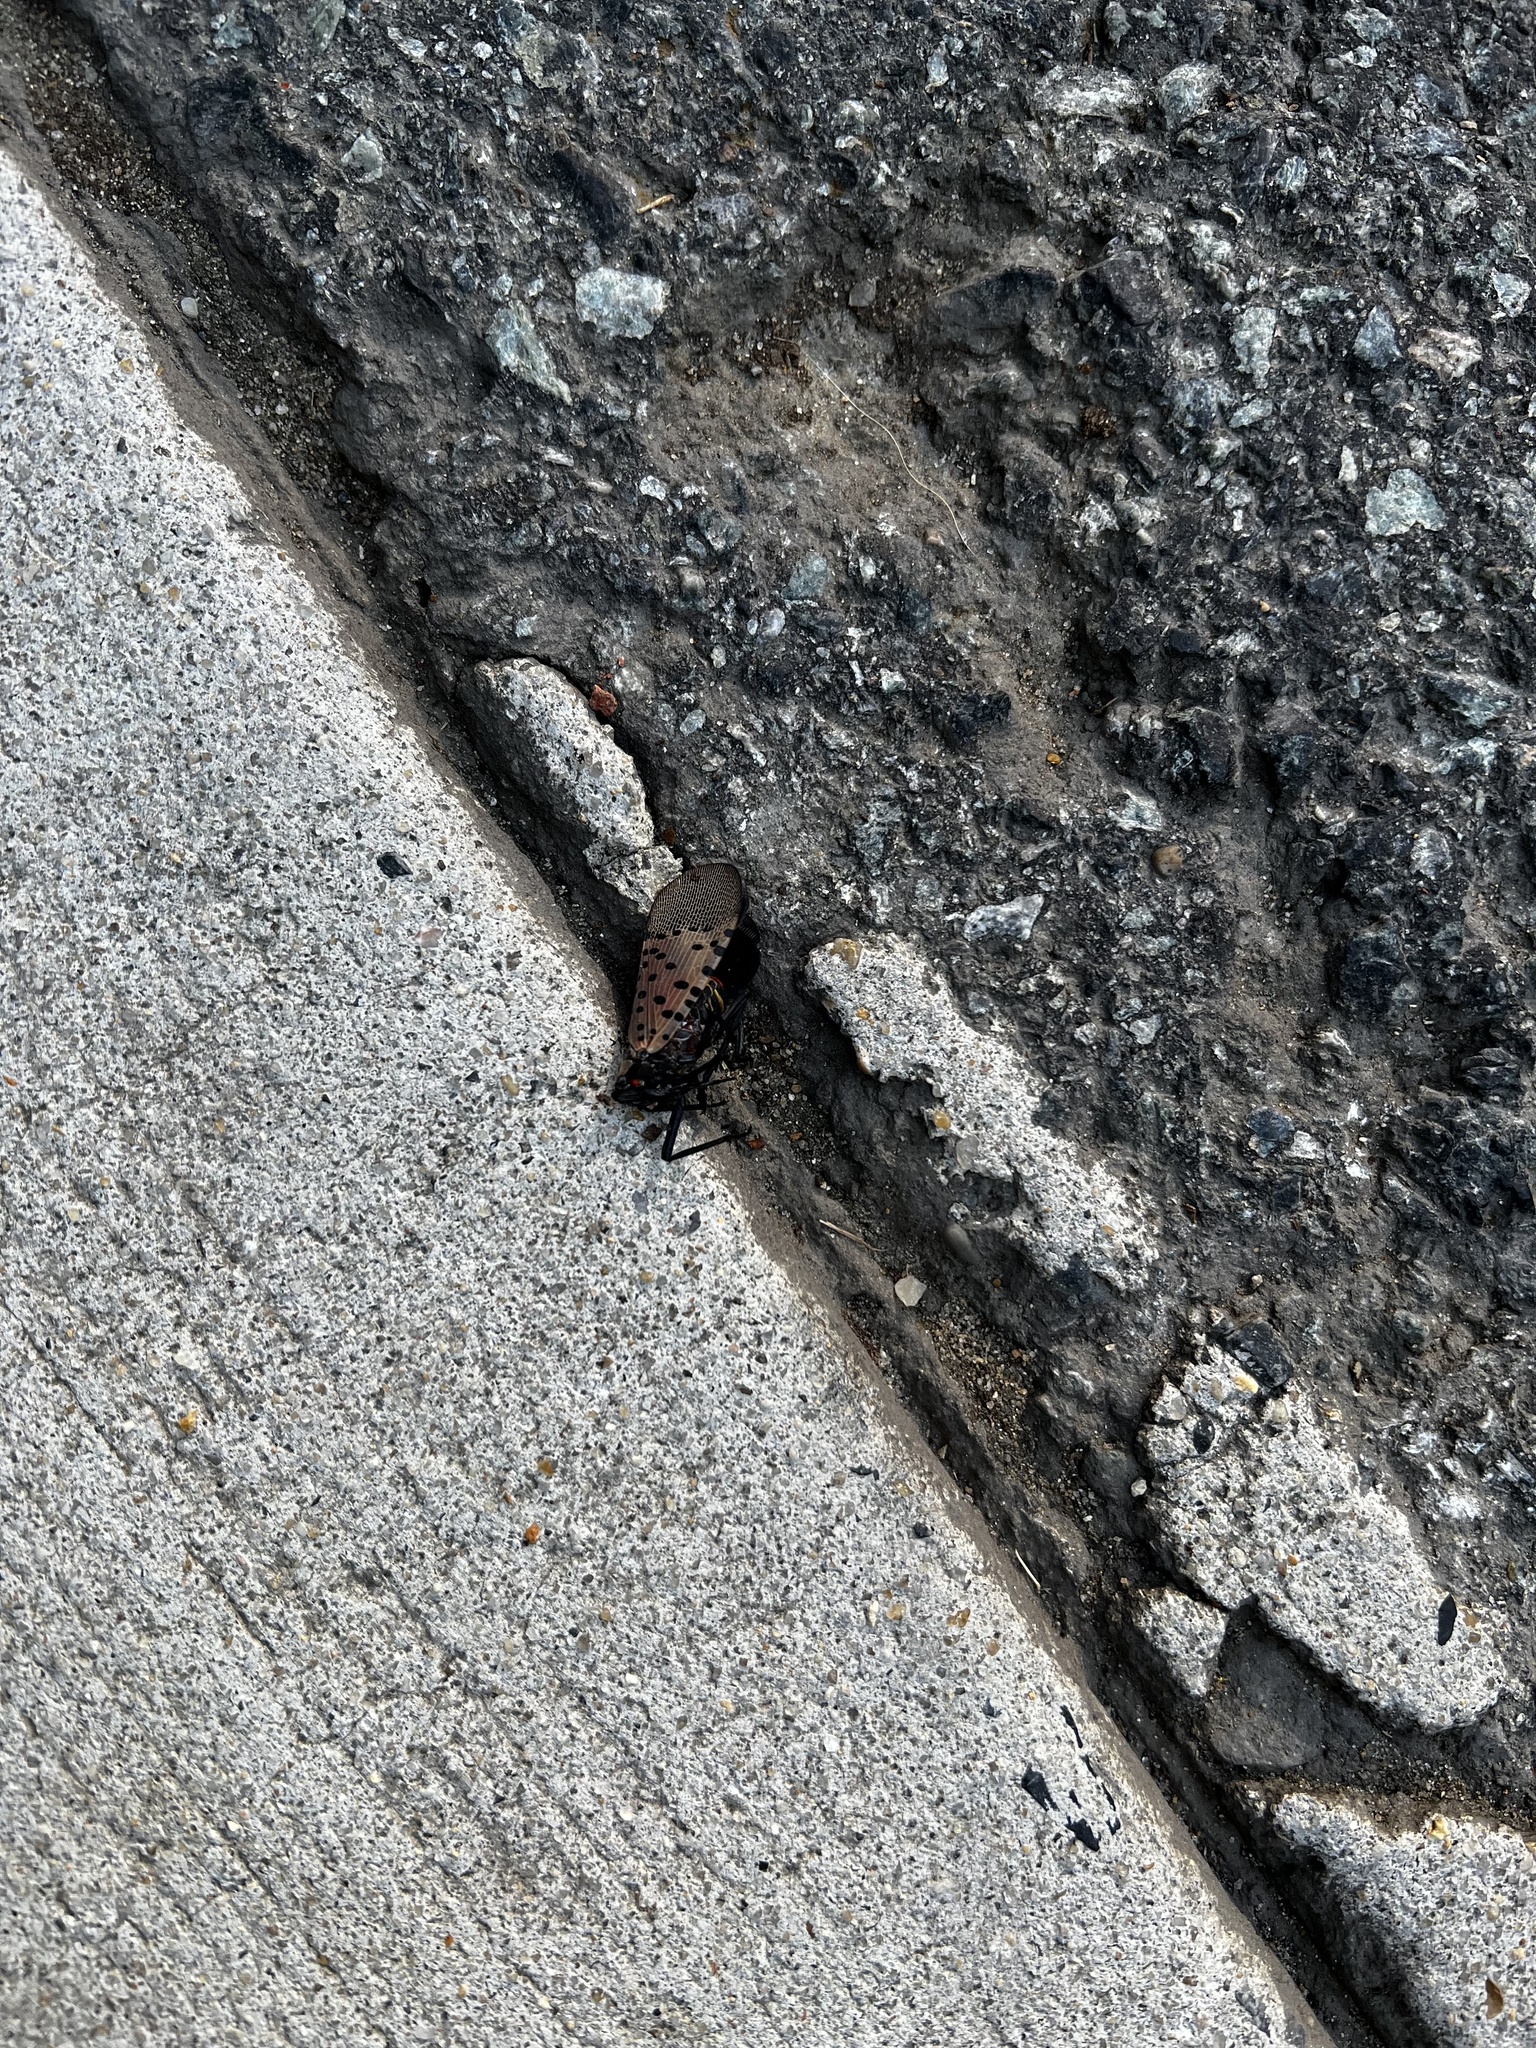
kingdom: Animalia
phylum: Arthropoda
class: Insecta
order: Hemiptera
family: Fulgoridae
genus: Lycorma
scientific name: Lycorma delicatula
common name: Spotted lanternfly
